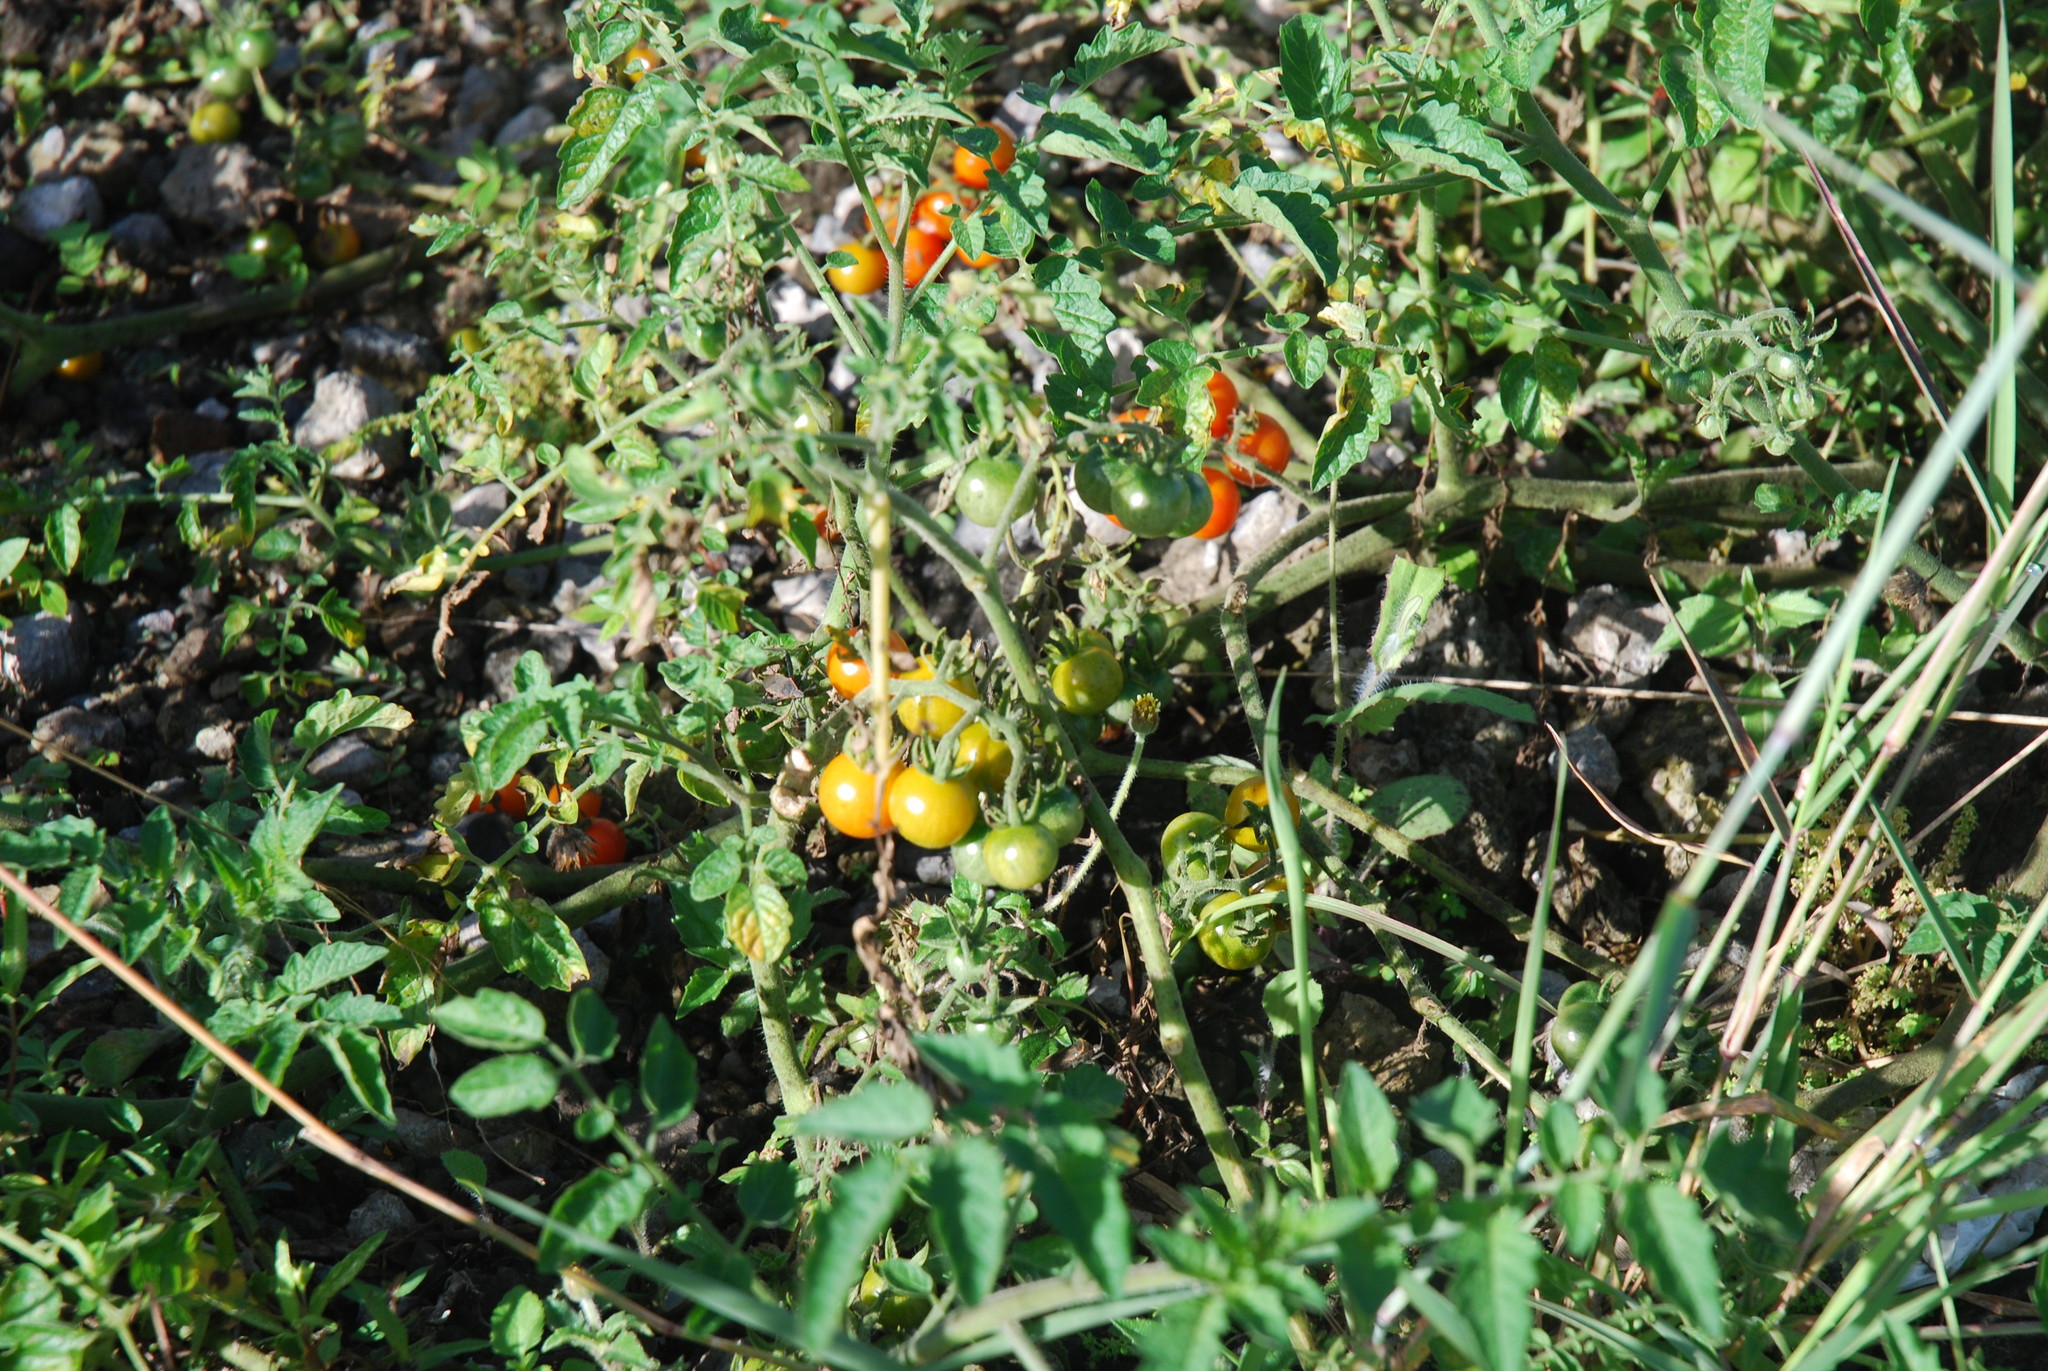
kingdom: Plantae
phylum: Tracheophyta
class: Magnoliopsida
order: Solanales
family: Solanaceae
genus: Solanum
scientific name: Solanum lycopersicum
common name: Garden tomato
